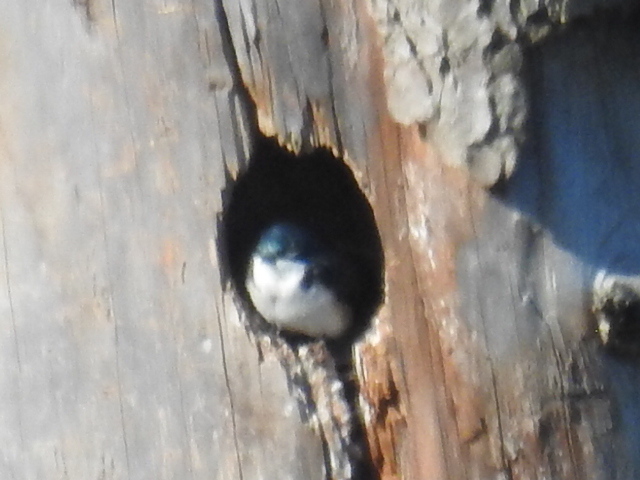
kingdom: Animalia
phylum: Chordata
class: Aves
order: Passeriformes
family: Hirundinidae
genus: Tachycineta
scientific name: Tachycineta bicolor
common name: Tree swallow
